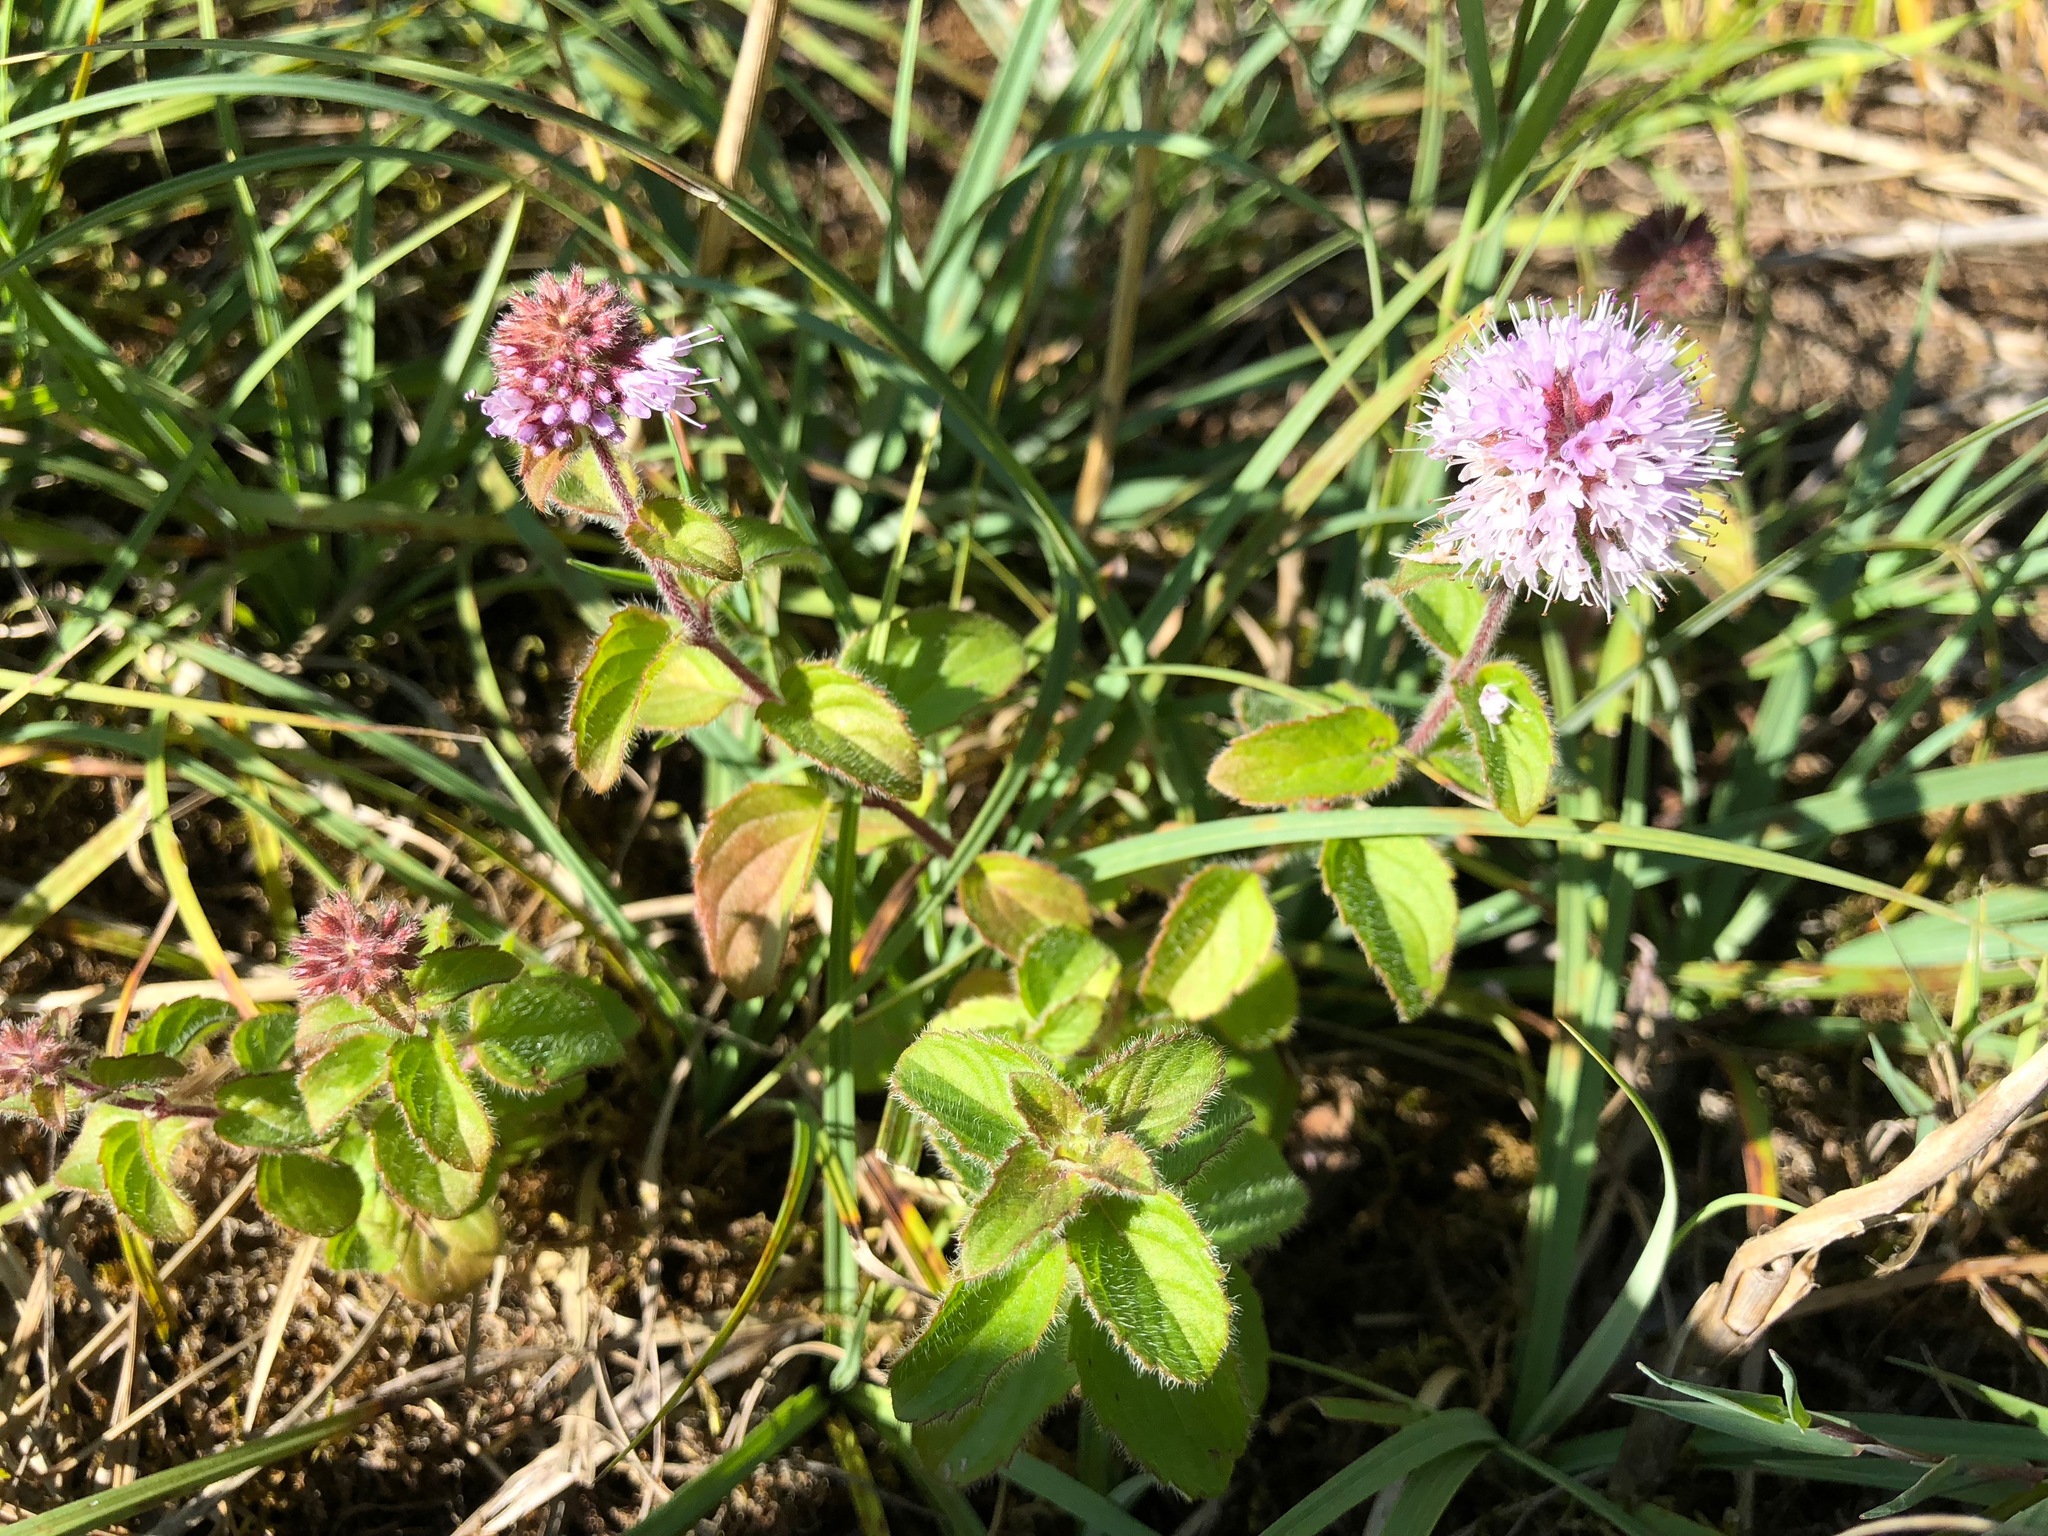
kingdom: Plantae
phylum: Tracheophyta
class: Magnoliopsida
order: Lamiales
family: Lamiaceae
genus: Mentha
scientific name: Mentha aquatica
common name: Water mint
